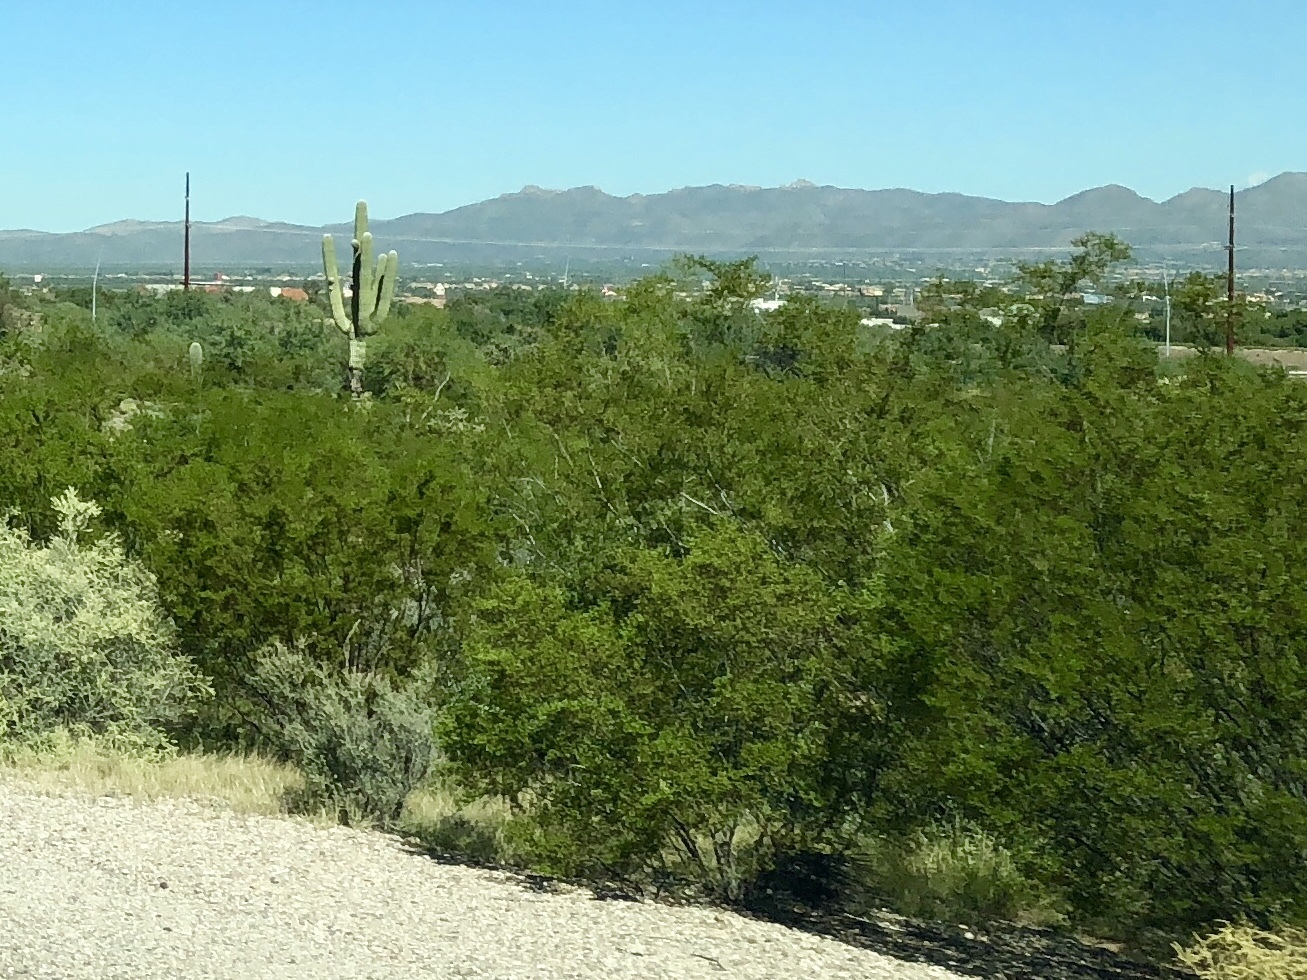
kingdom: Plantae
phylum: Tracheophyta
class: Magnoliopsida
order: Zygophyllales
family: Zygophyllaceae
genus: Larrea
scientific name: Larrea tridentata
